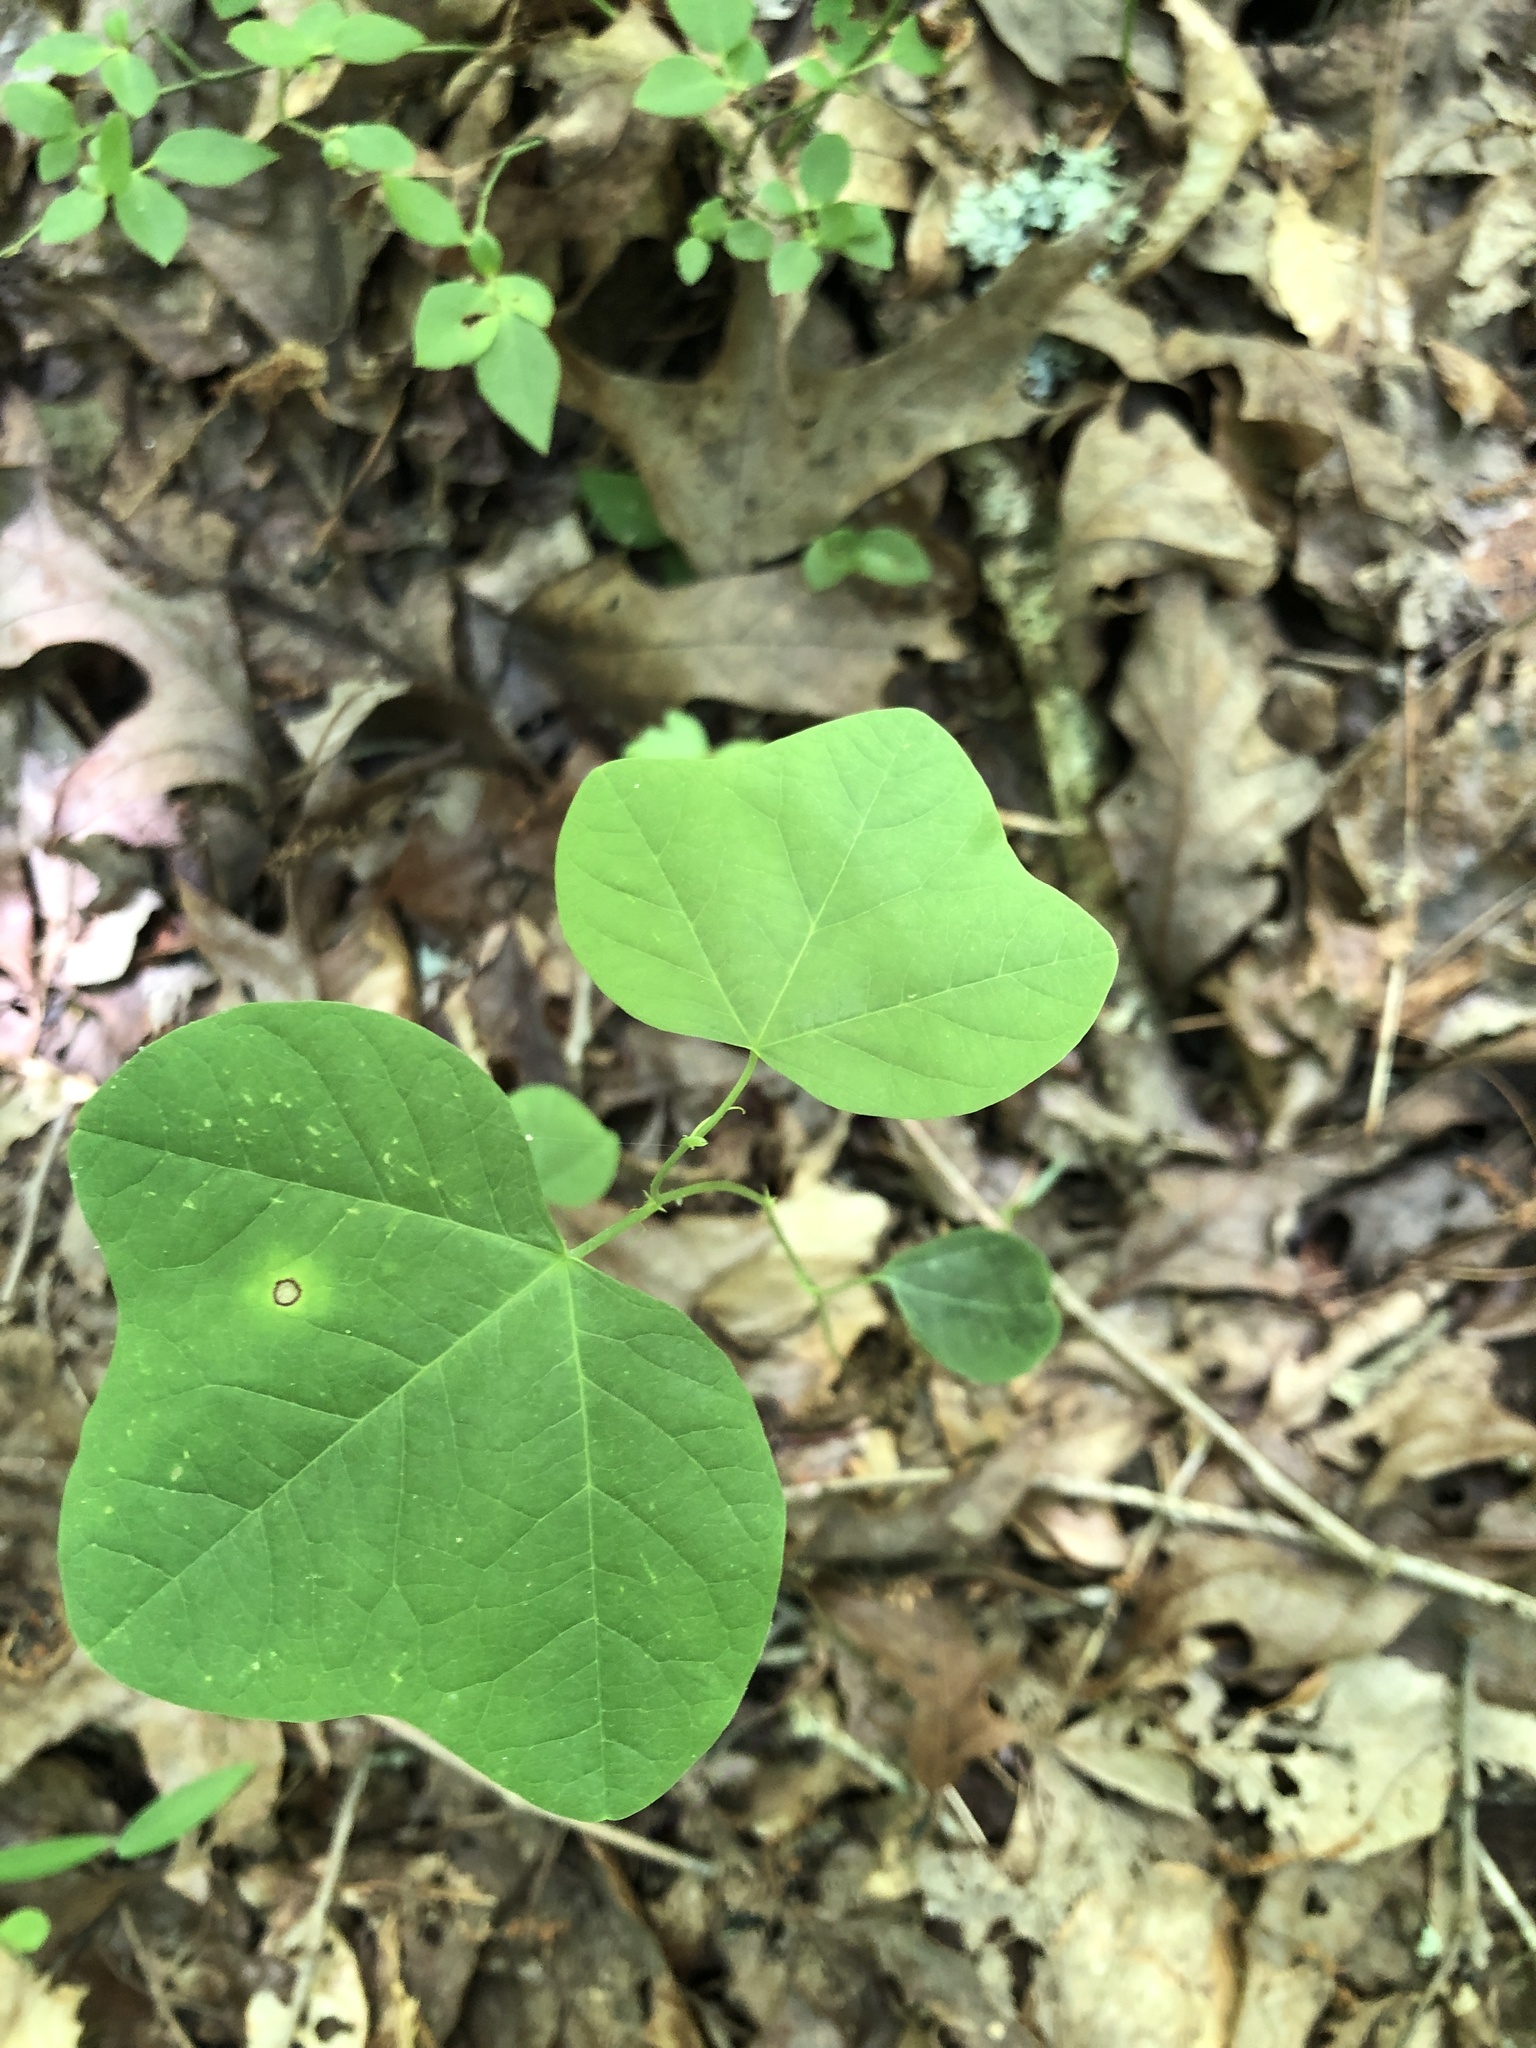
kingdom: Plantae
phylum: Tracheophyta
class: Magnoliopsida
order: Malpighiales
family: Passifloraceae
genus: Passiflora
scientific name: Passiflora lutea
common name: Yellow passionflower
